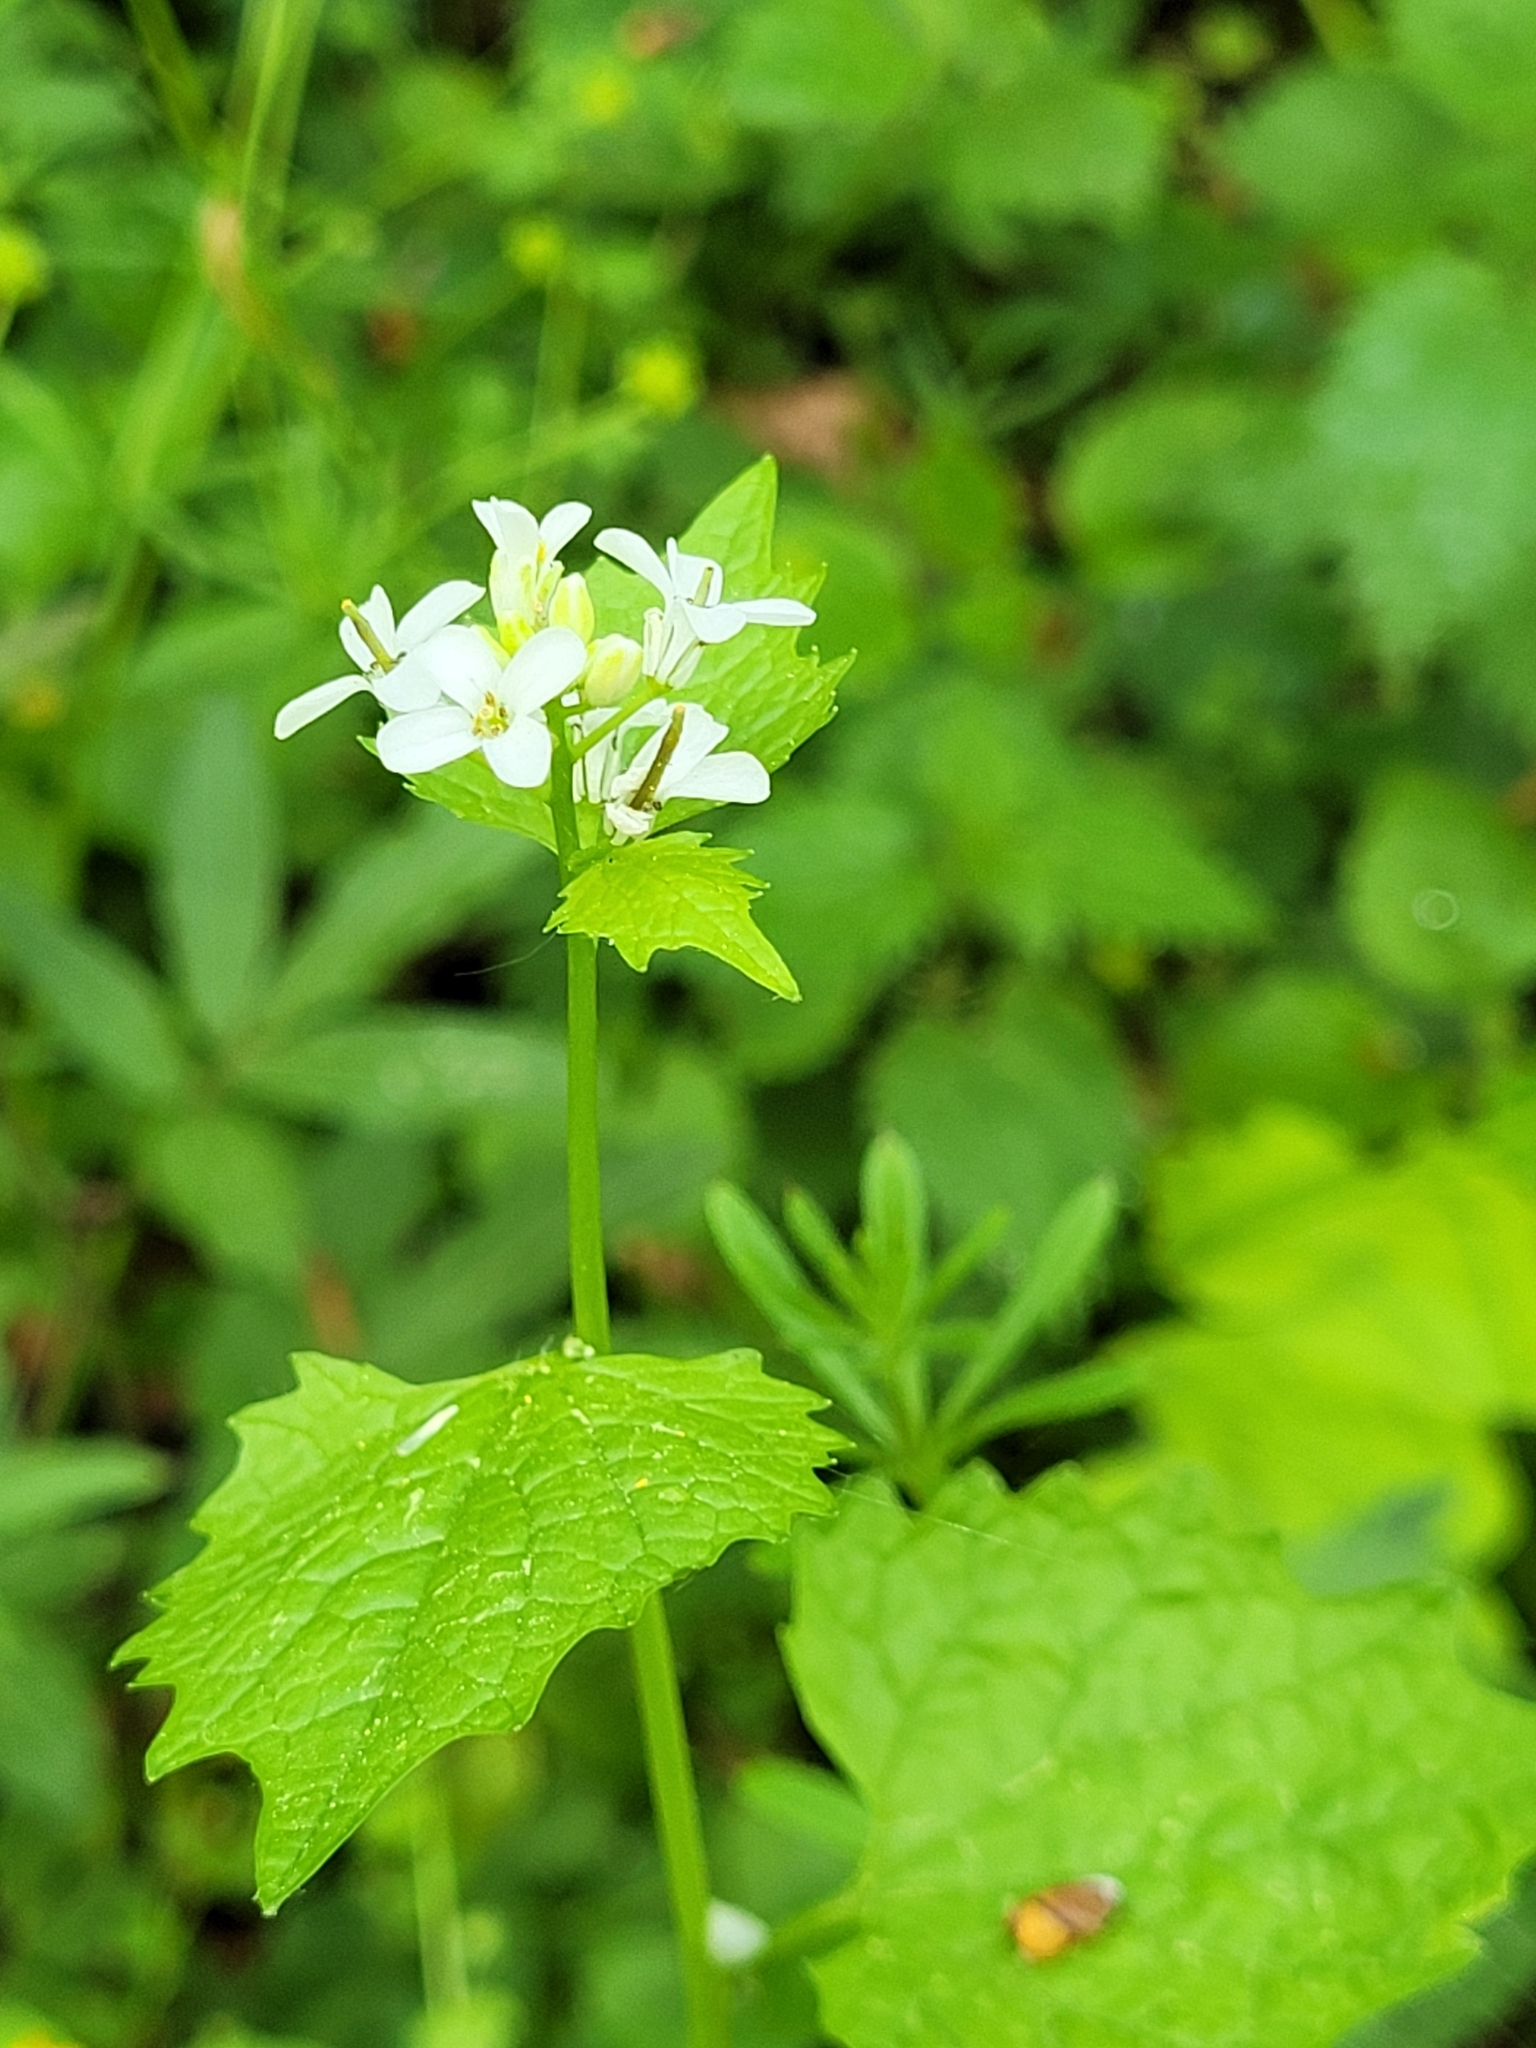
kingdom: Plantae
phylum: Tracheophyta
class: Magnoliopsida
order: Brassicales
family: Brassicaceae
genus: Alliaria
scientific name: Alliaria petiolata
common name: Garlic mustard
